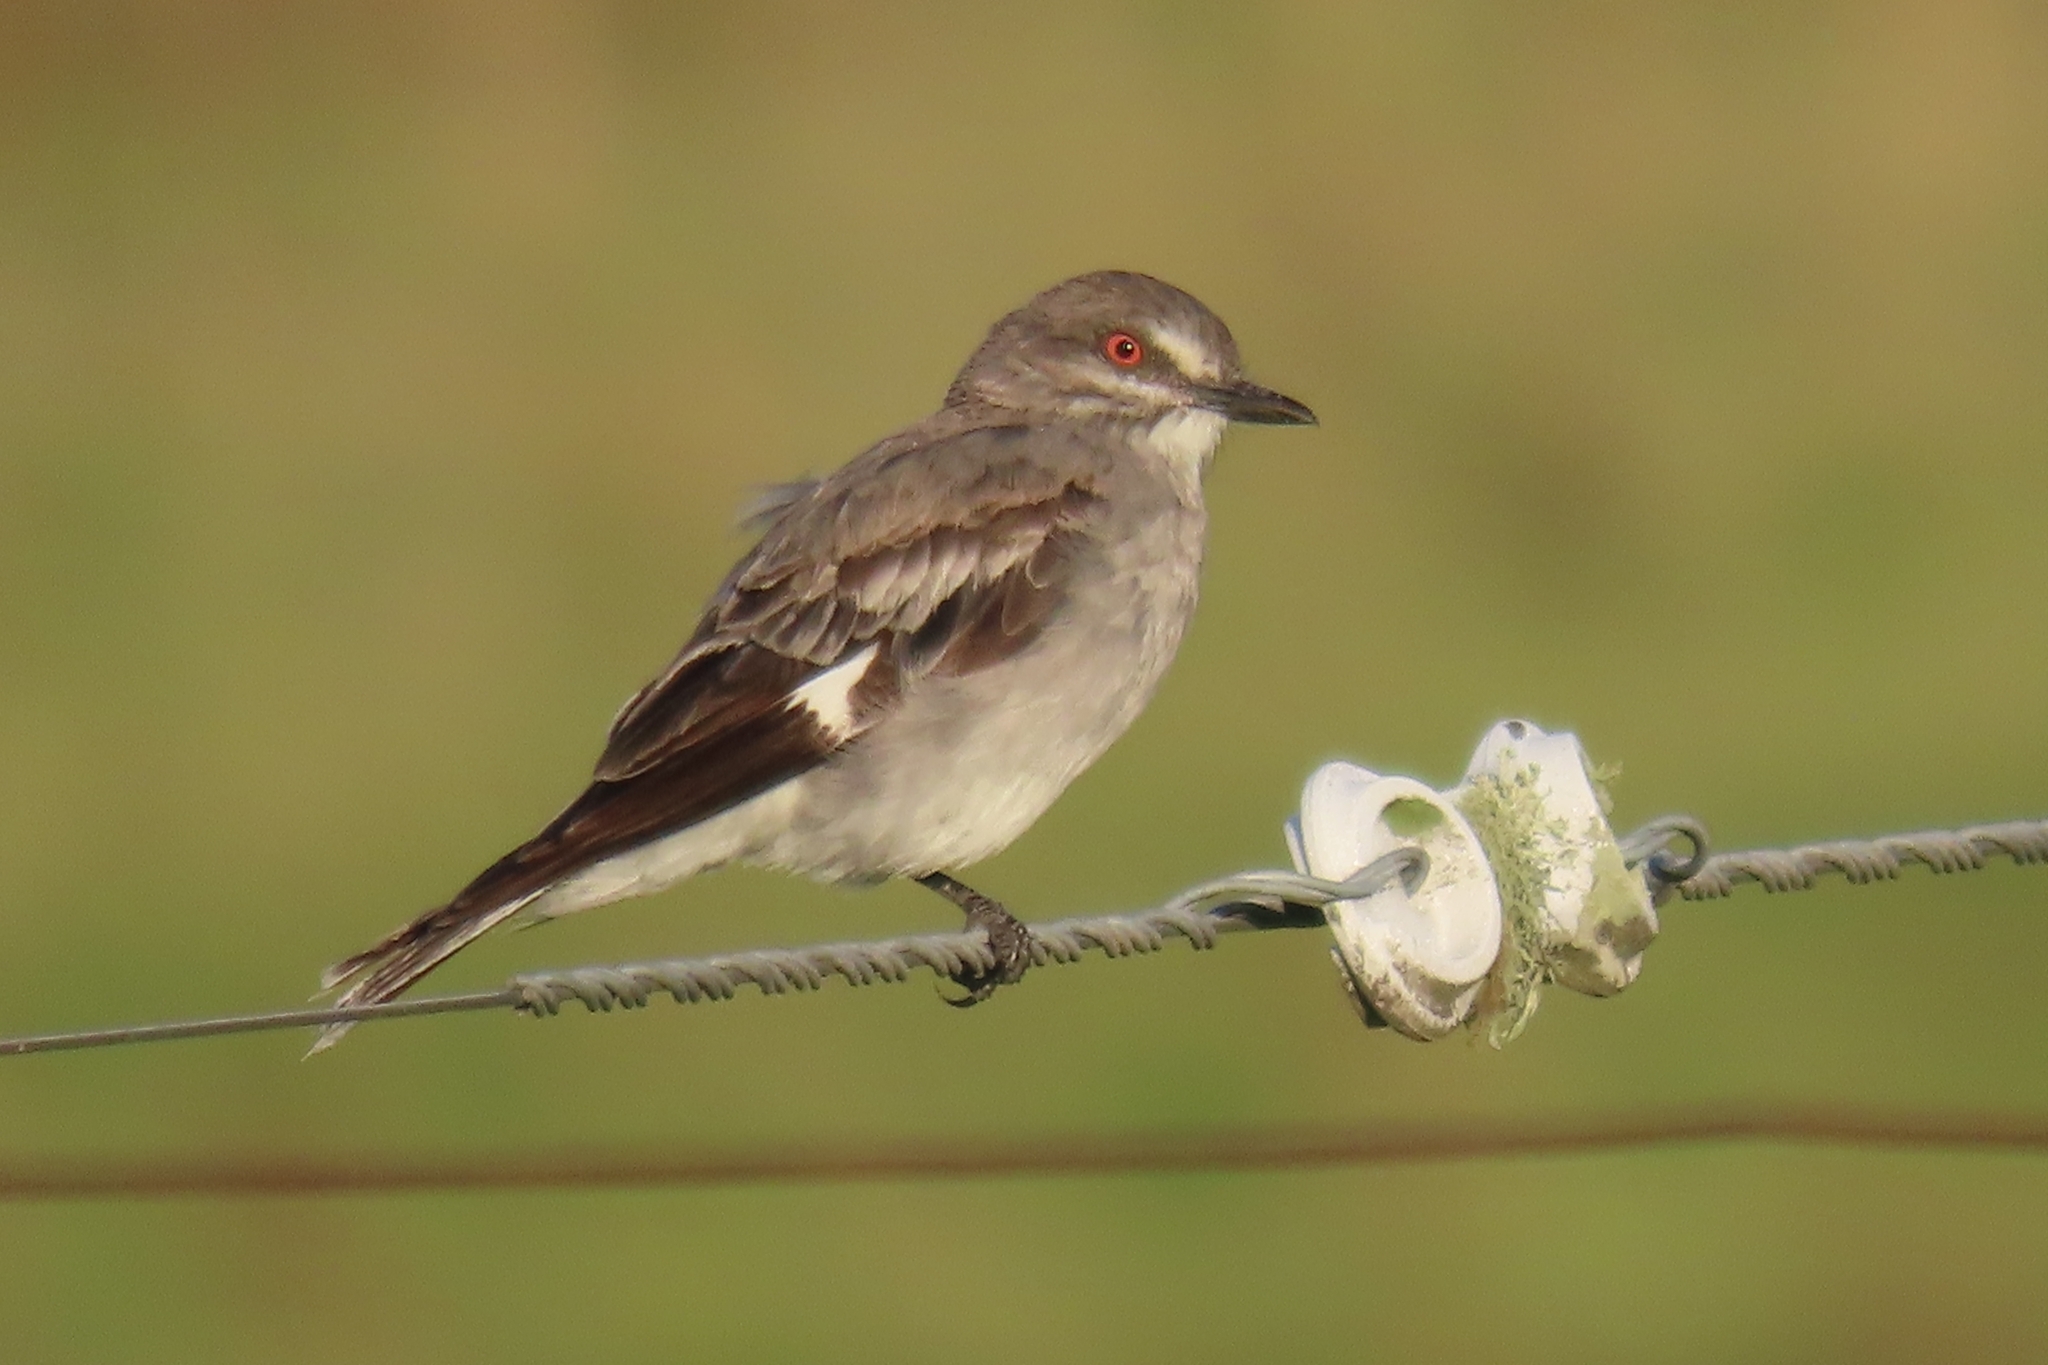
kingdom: Animalia
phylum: Chordata
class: Aves
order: Passeriformes
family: Tyrannidae
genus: Xolmis
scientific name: Xolmis cinereus
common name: Grey monjita
